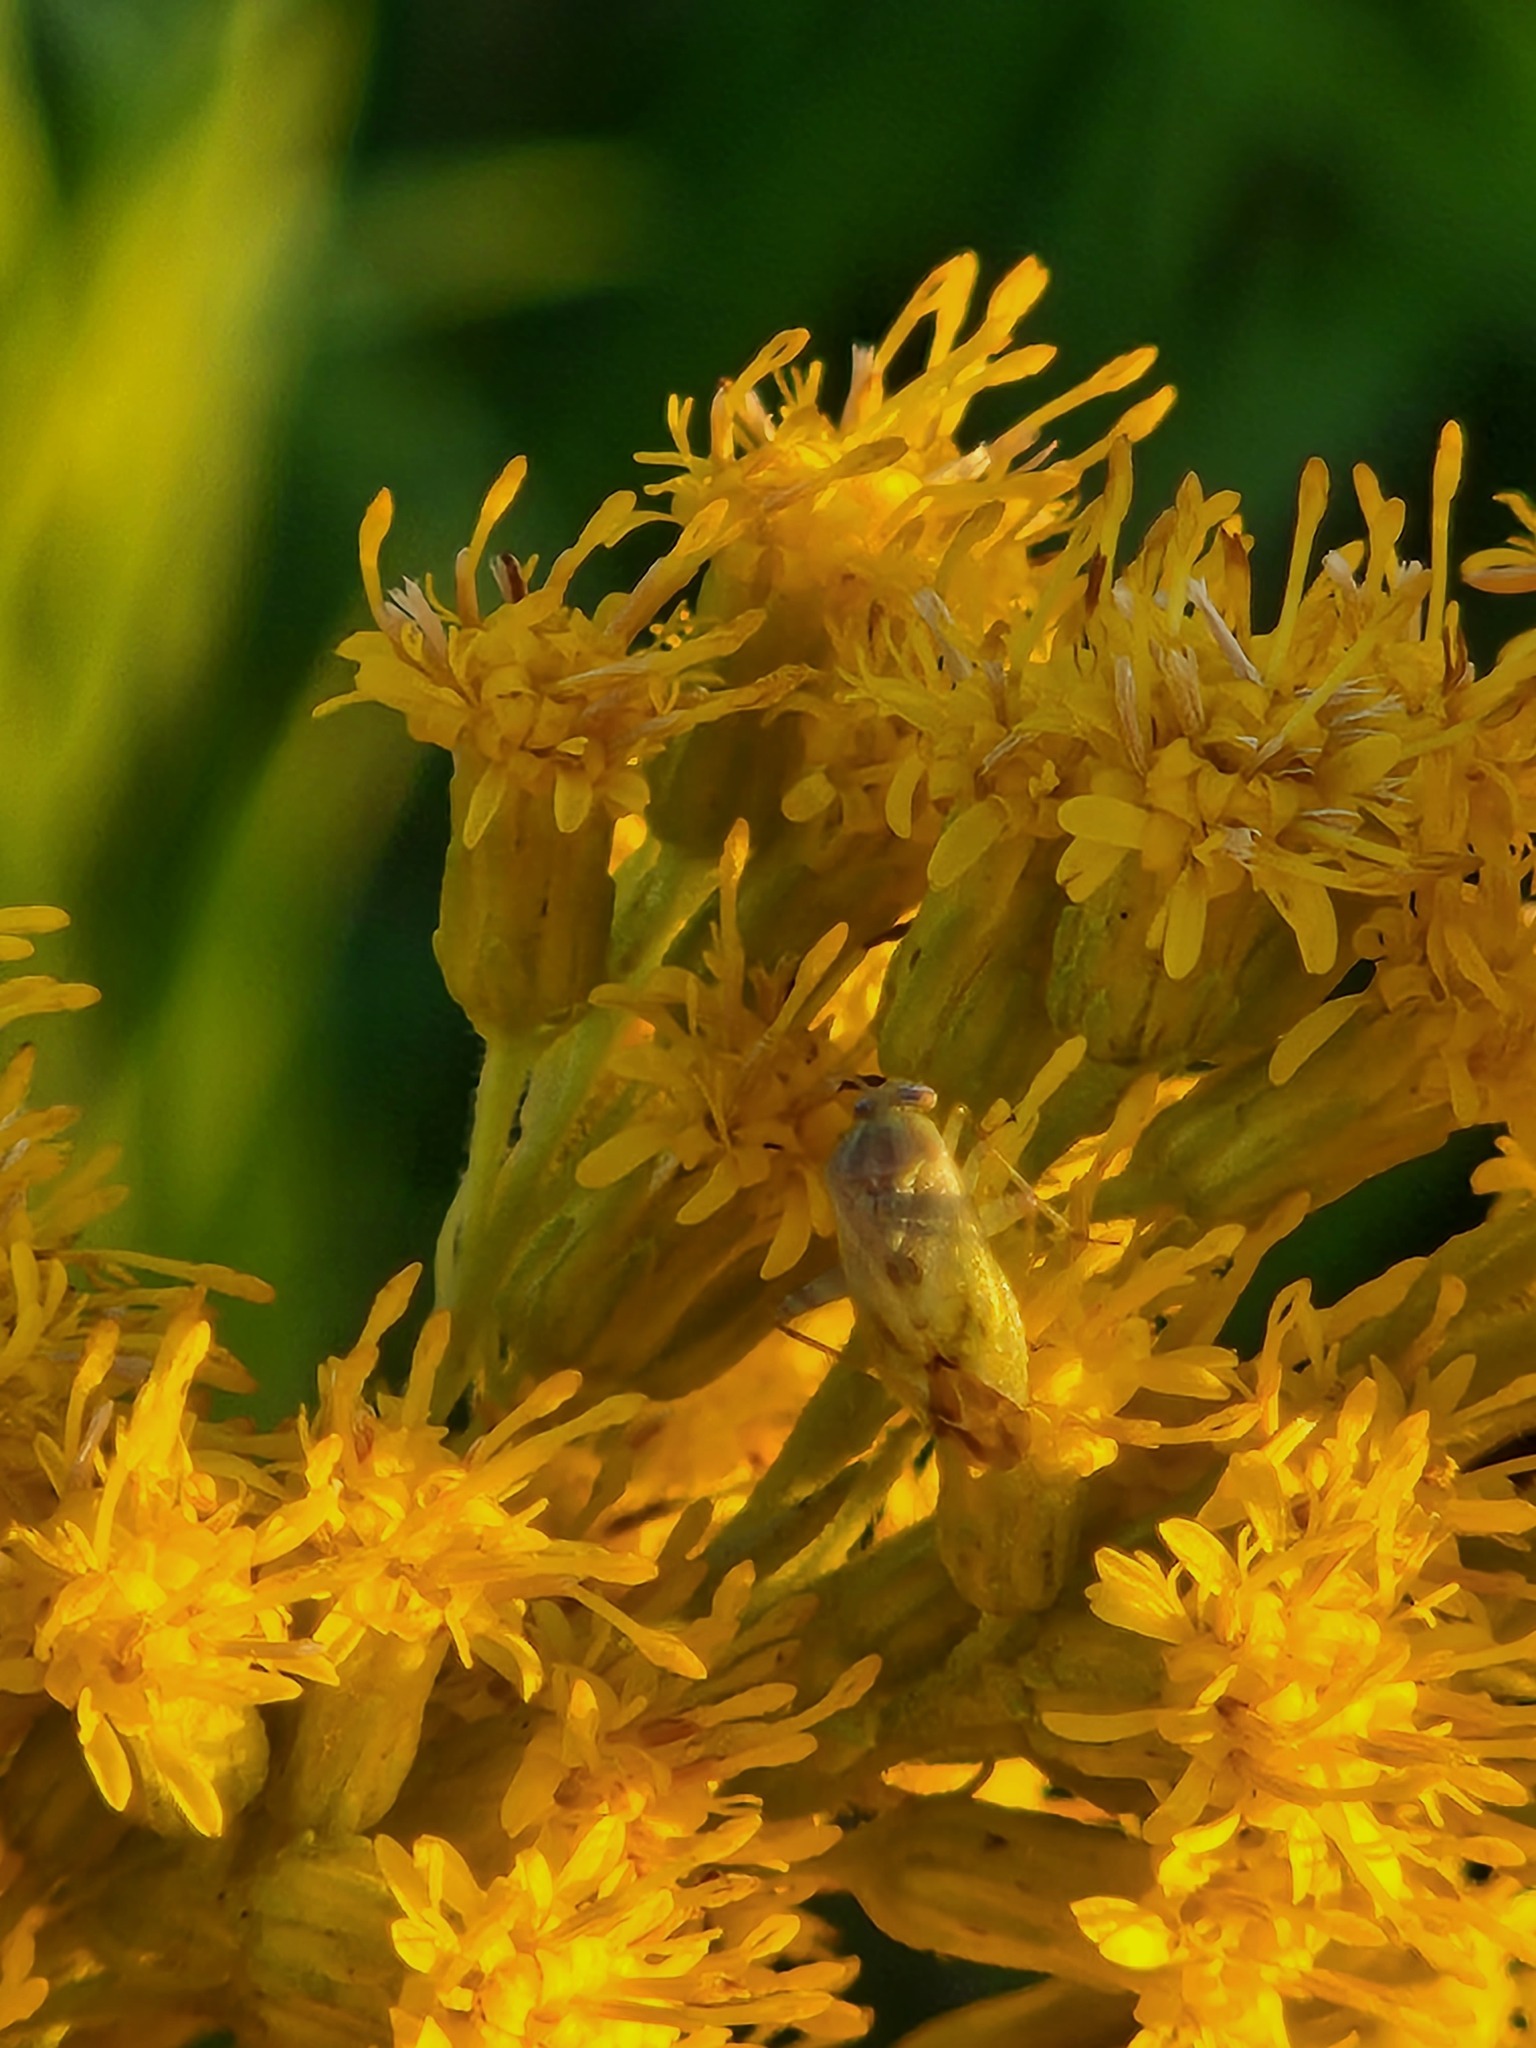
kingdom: Animalia
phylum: Arthropoda
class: Insecta
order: Hemiptera
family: Miridae
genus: Taylorilygus
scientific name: Taylorilygus apicalis
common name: Plant bug
